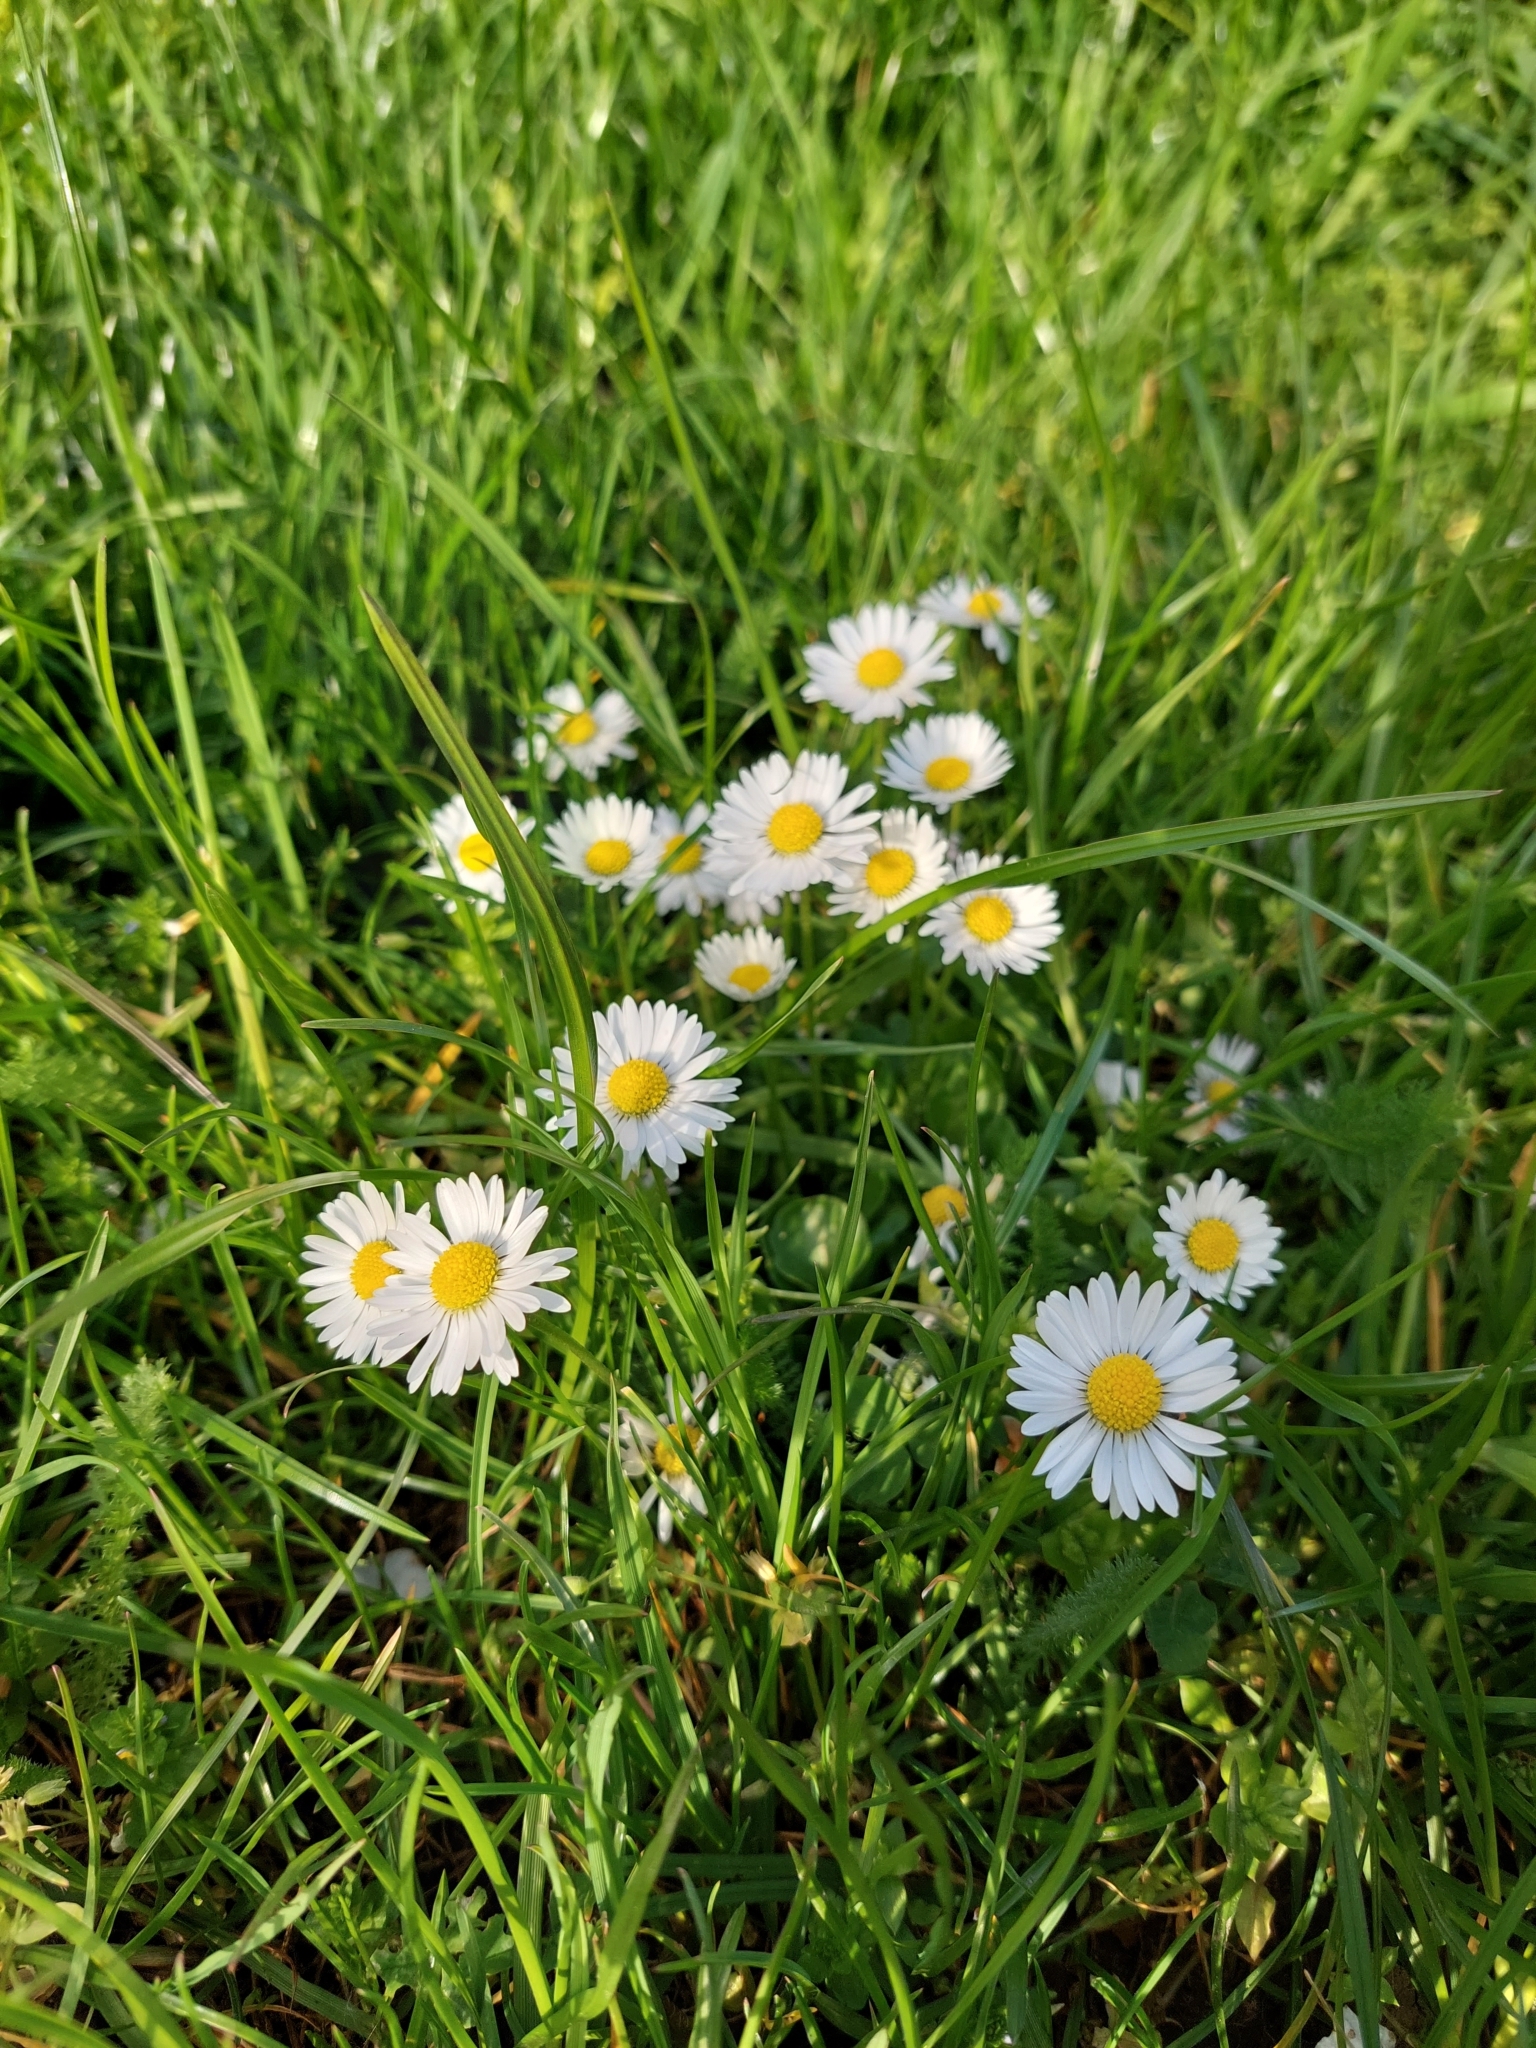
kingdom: Plantae
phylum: Tracheophyta
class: Magnoliopsida
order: Asterales
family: Asteraceae
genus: Bellis
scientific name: Bellis perennis
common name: Lawndaisy
